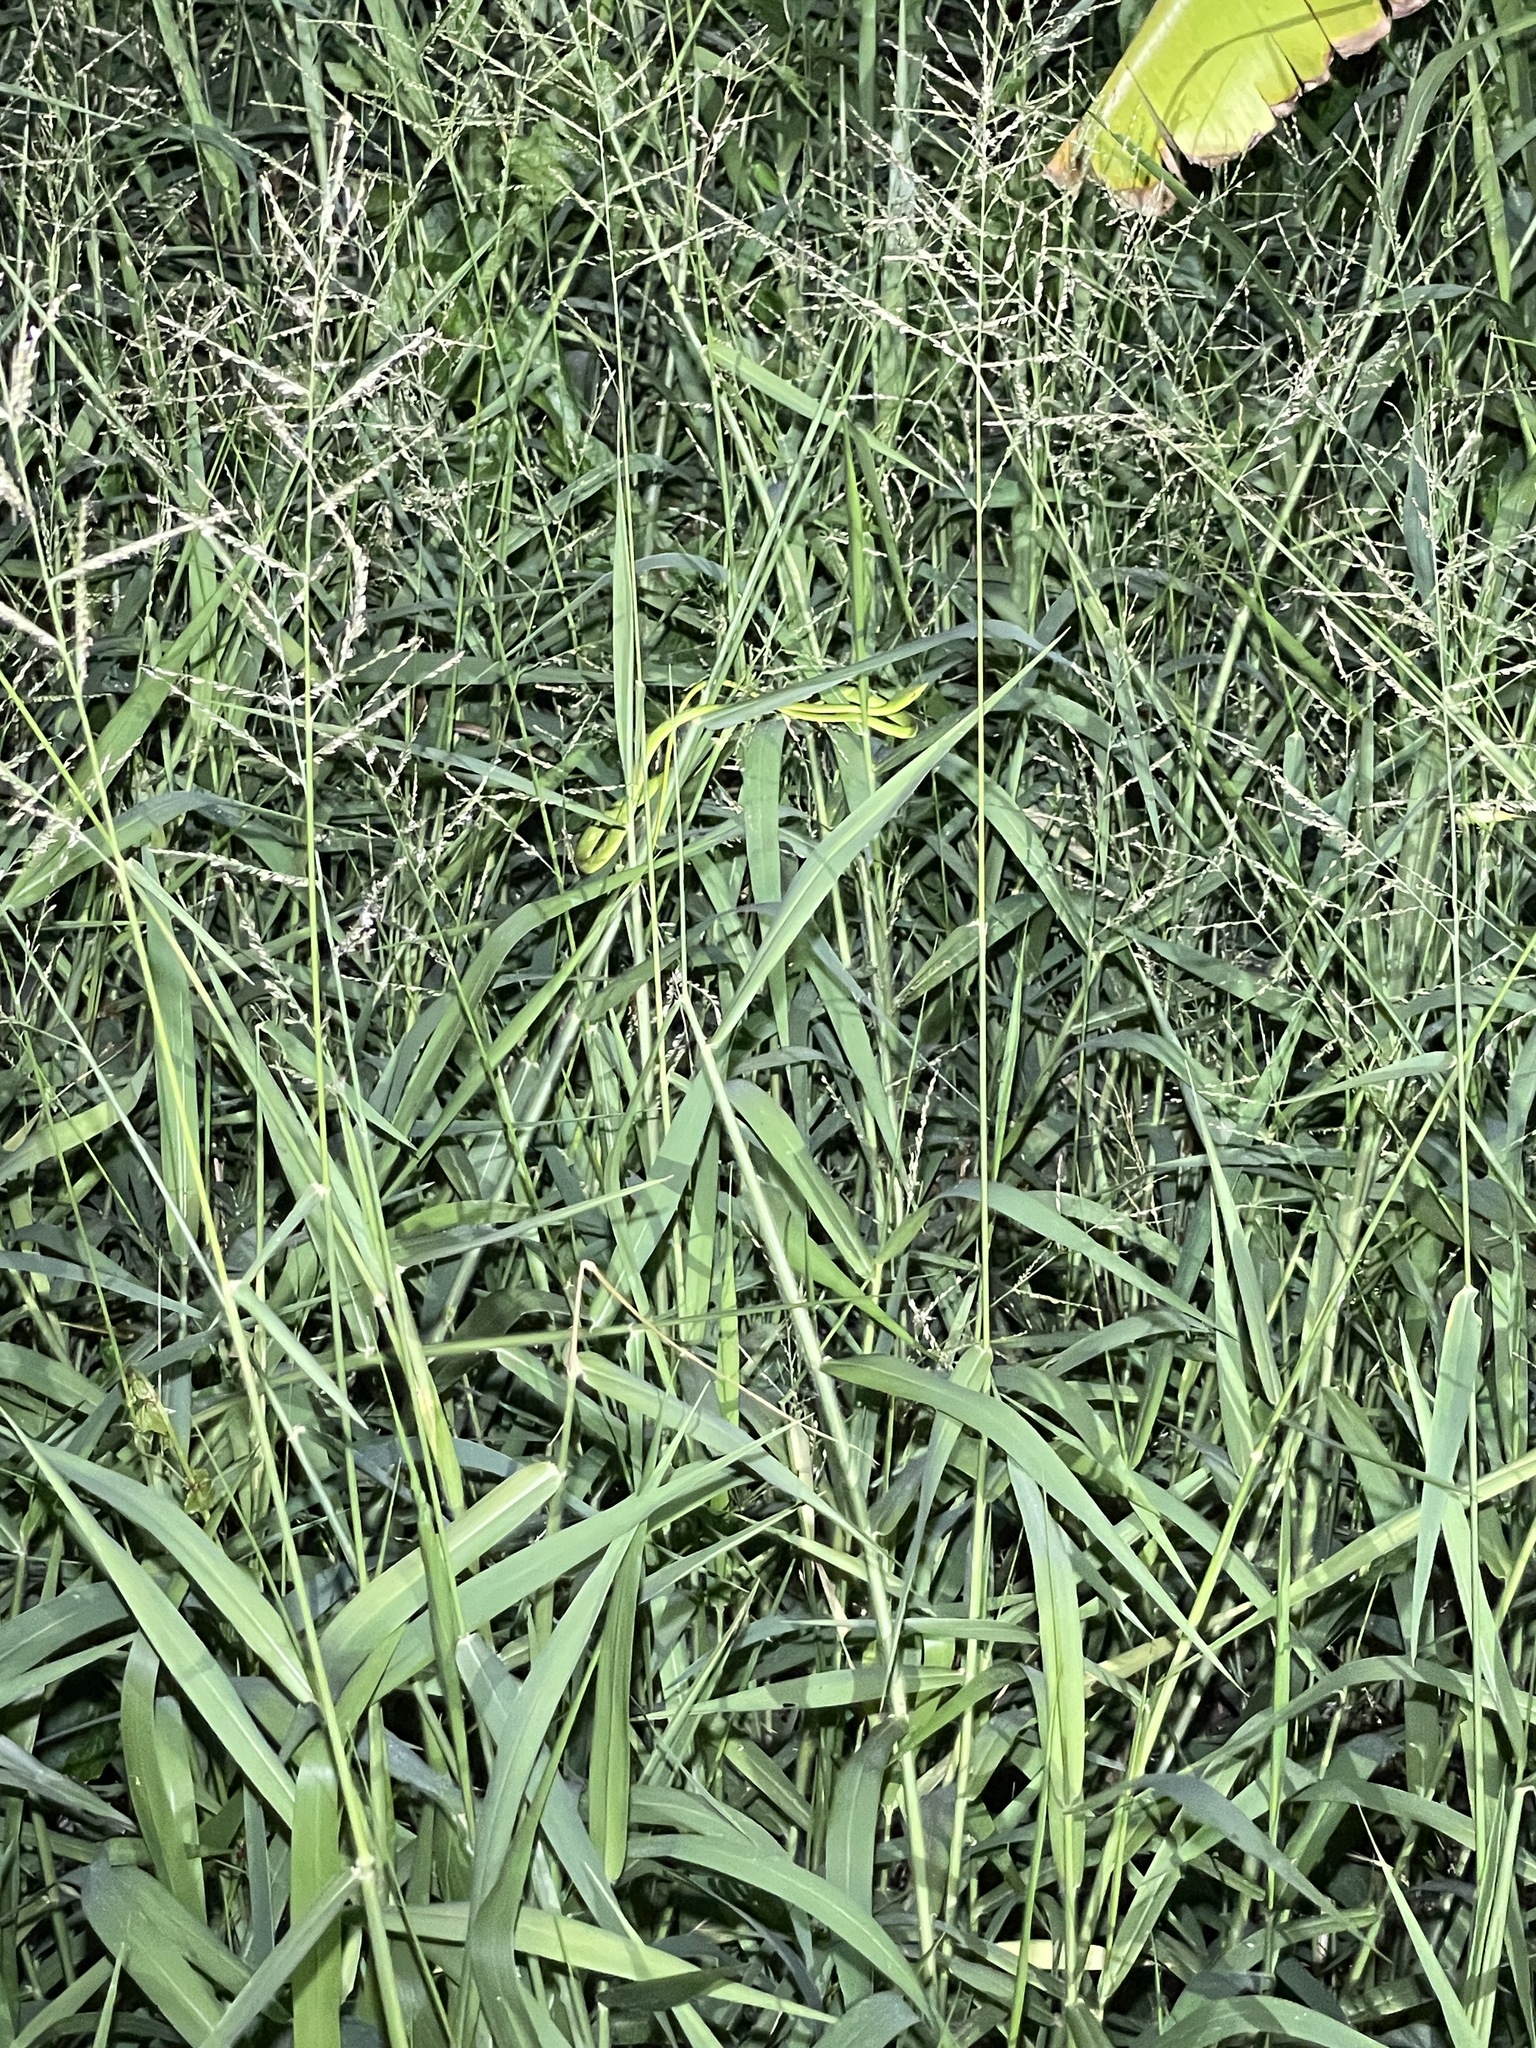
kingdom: Animalia
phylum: Chordata
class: Squamata
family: Colubridae
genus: Ahaetulla
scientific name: Ahaetulla
